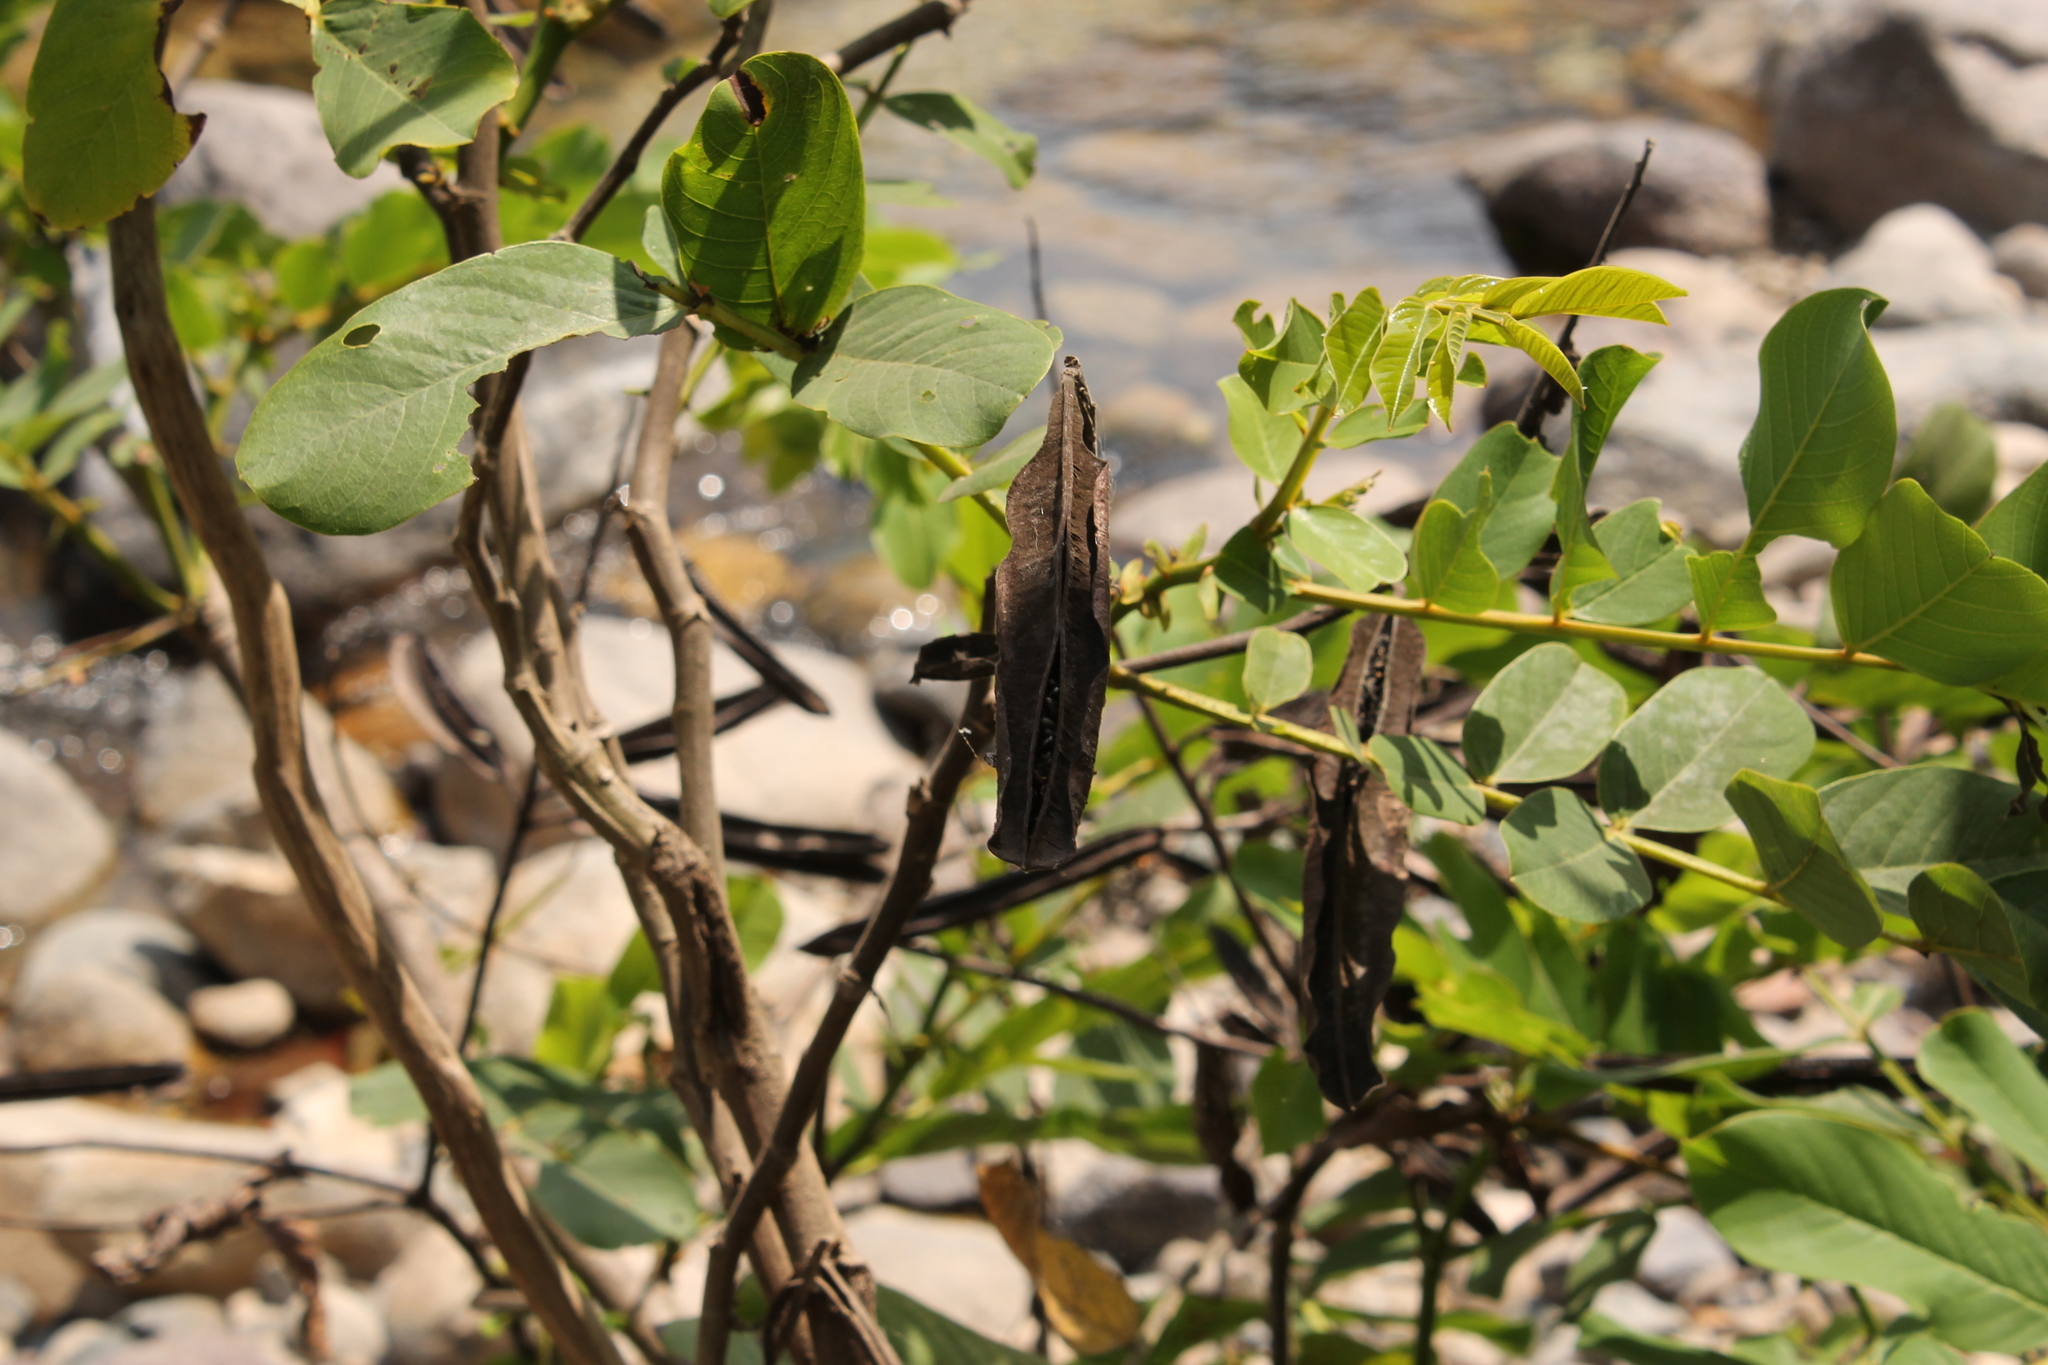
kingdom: Plantae
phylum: Tracheophyta
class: Magnoliopsida
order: Fabales
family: Fabaceae
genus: Senna
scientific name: Senna alata
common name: Emperor's candlesticks
